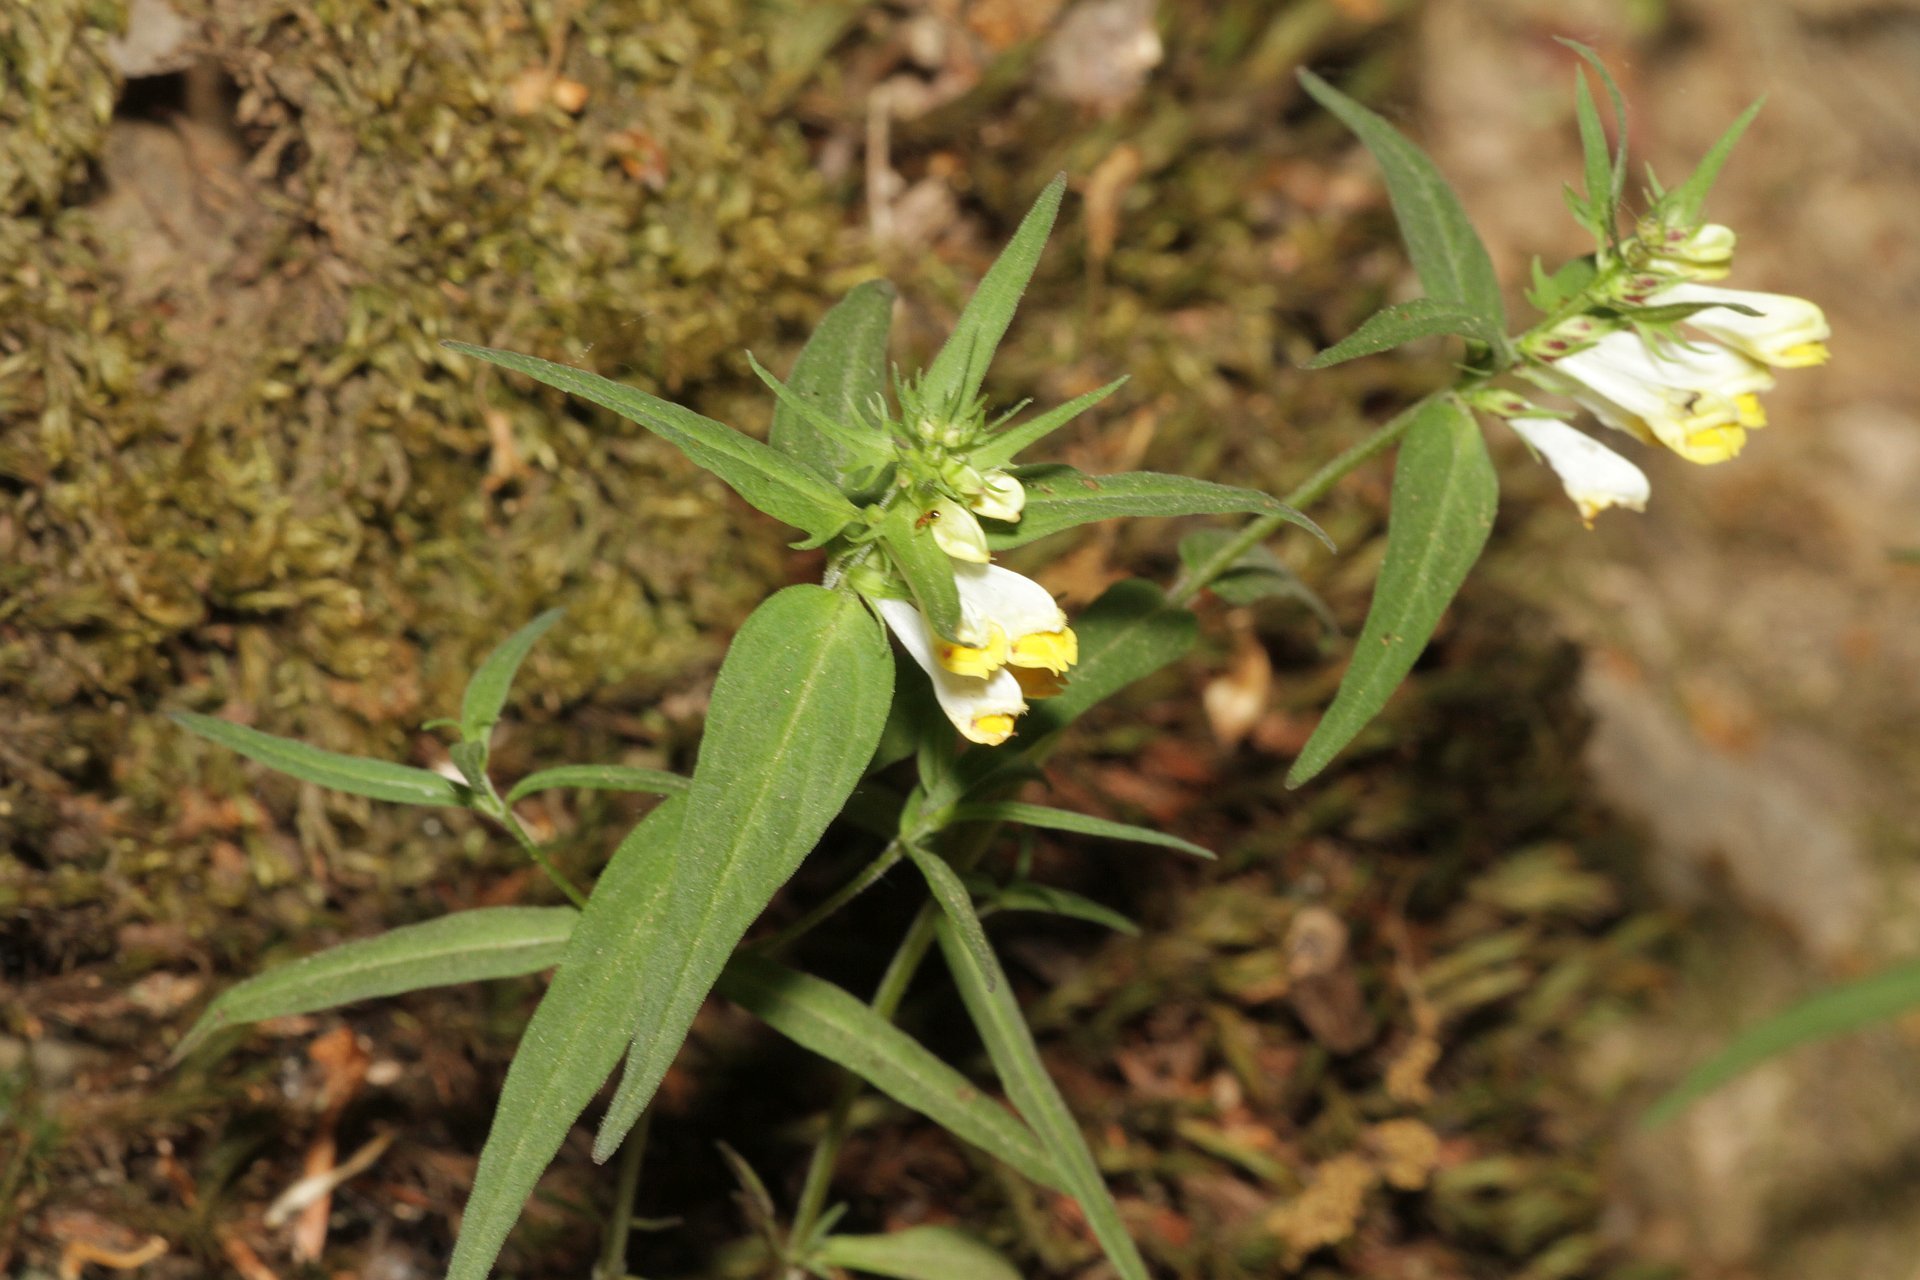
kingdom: Plantae
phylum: Tracheophyta
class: Magnoliopsida
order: Lamiales
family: Orobanchaceae
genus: Melampyrum
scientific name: Melampyrum pratense
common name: Common cow-wheat
